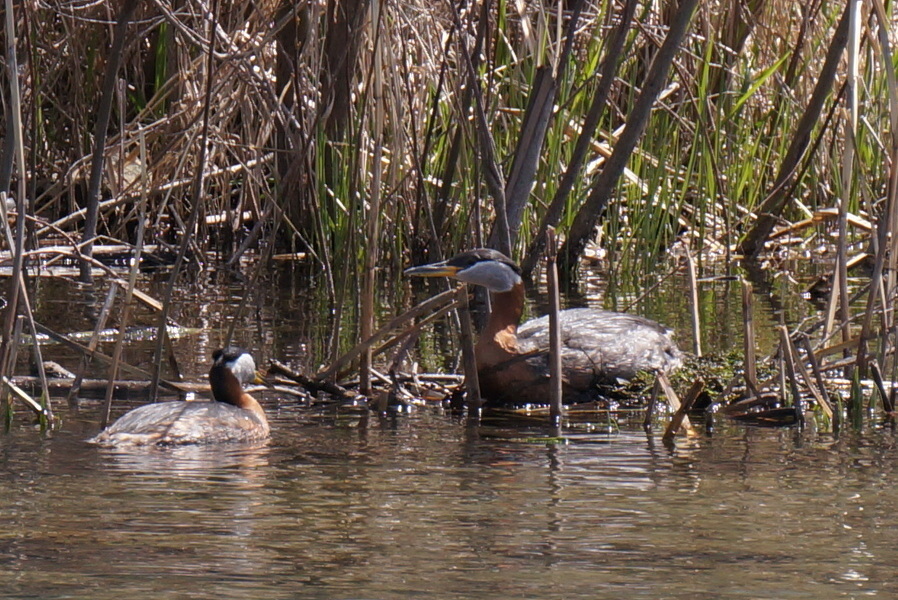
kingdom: Animalia
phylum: Chordata
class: Aves
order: Podicipediformes
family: Podicipedidae
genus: Podiceps
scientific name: Podiceps grisegena
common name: Red-necked grebe
